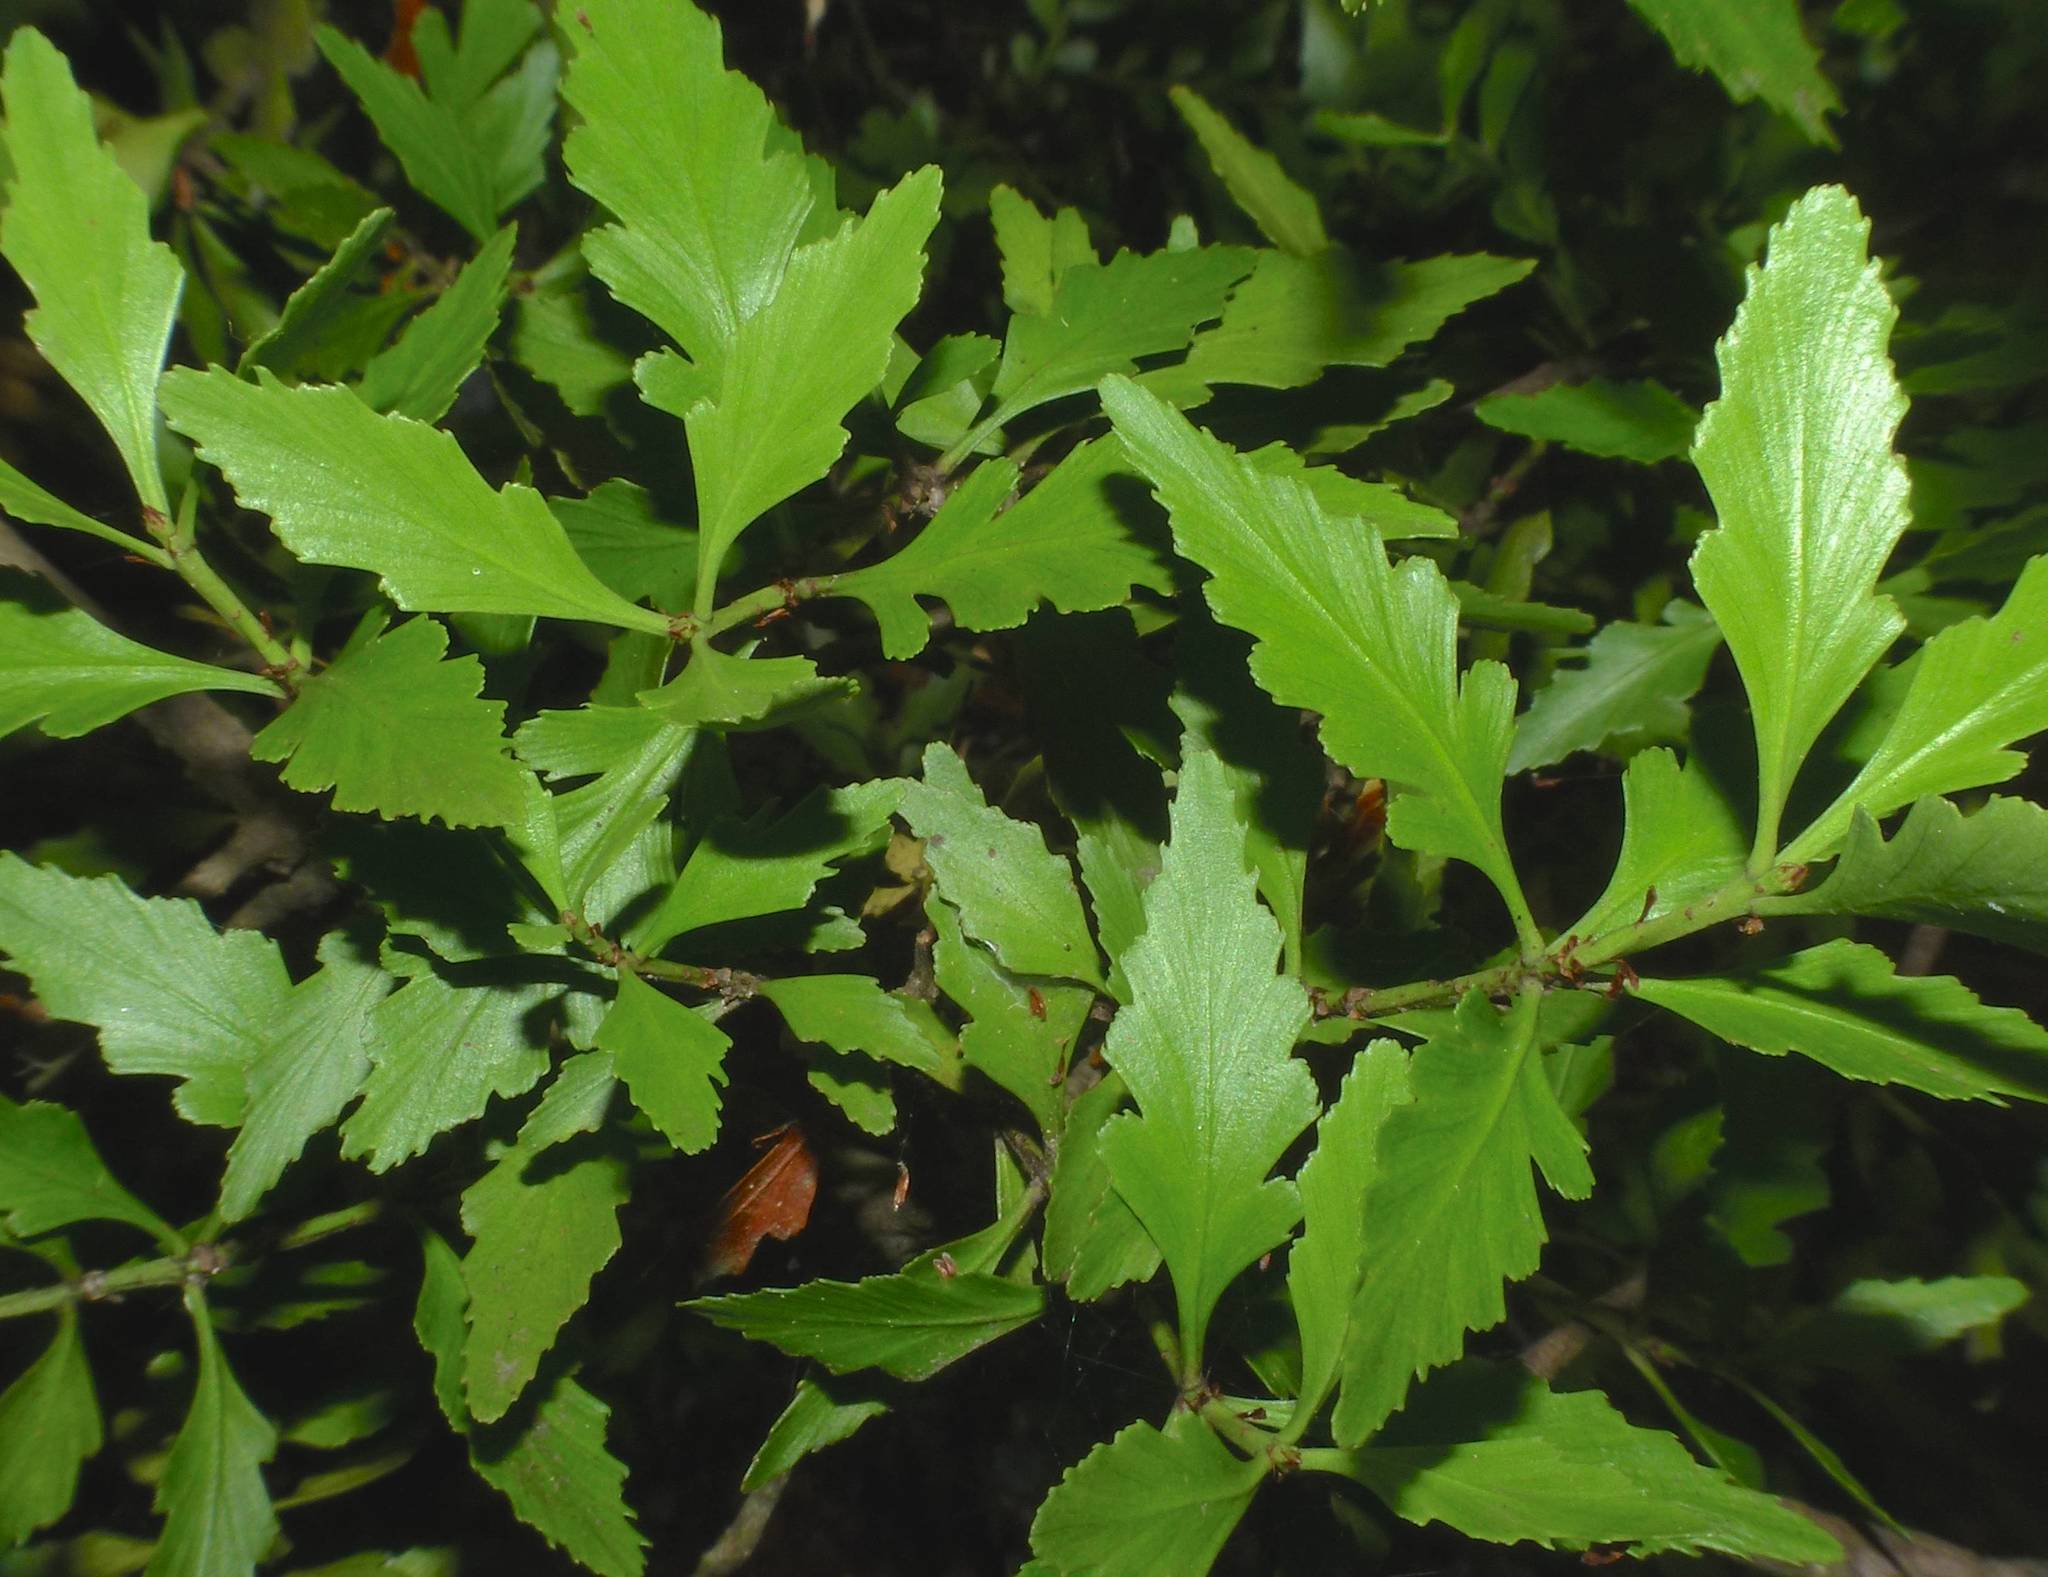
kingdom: Plantae
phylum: Tracheophyta
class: Pinopsida
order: Pinales
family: Phyllocladaceae
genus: Phyllocladus
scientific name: Phyllocladus trichomanoides
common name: Celery pine
